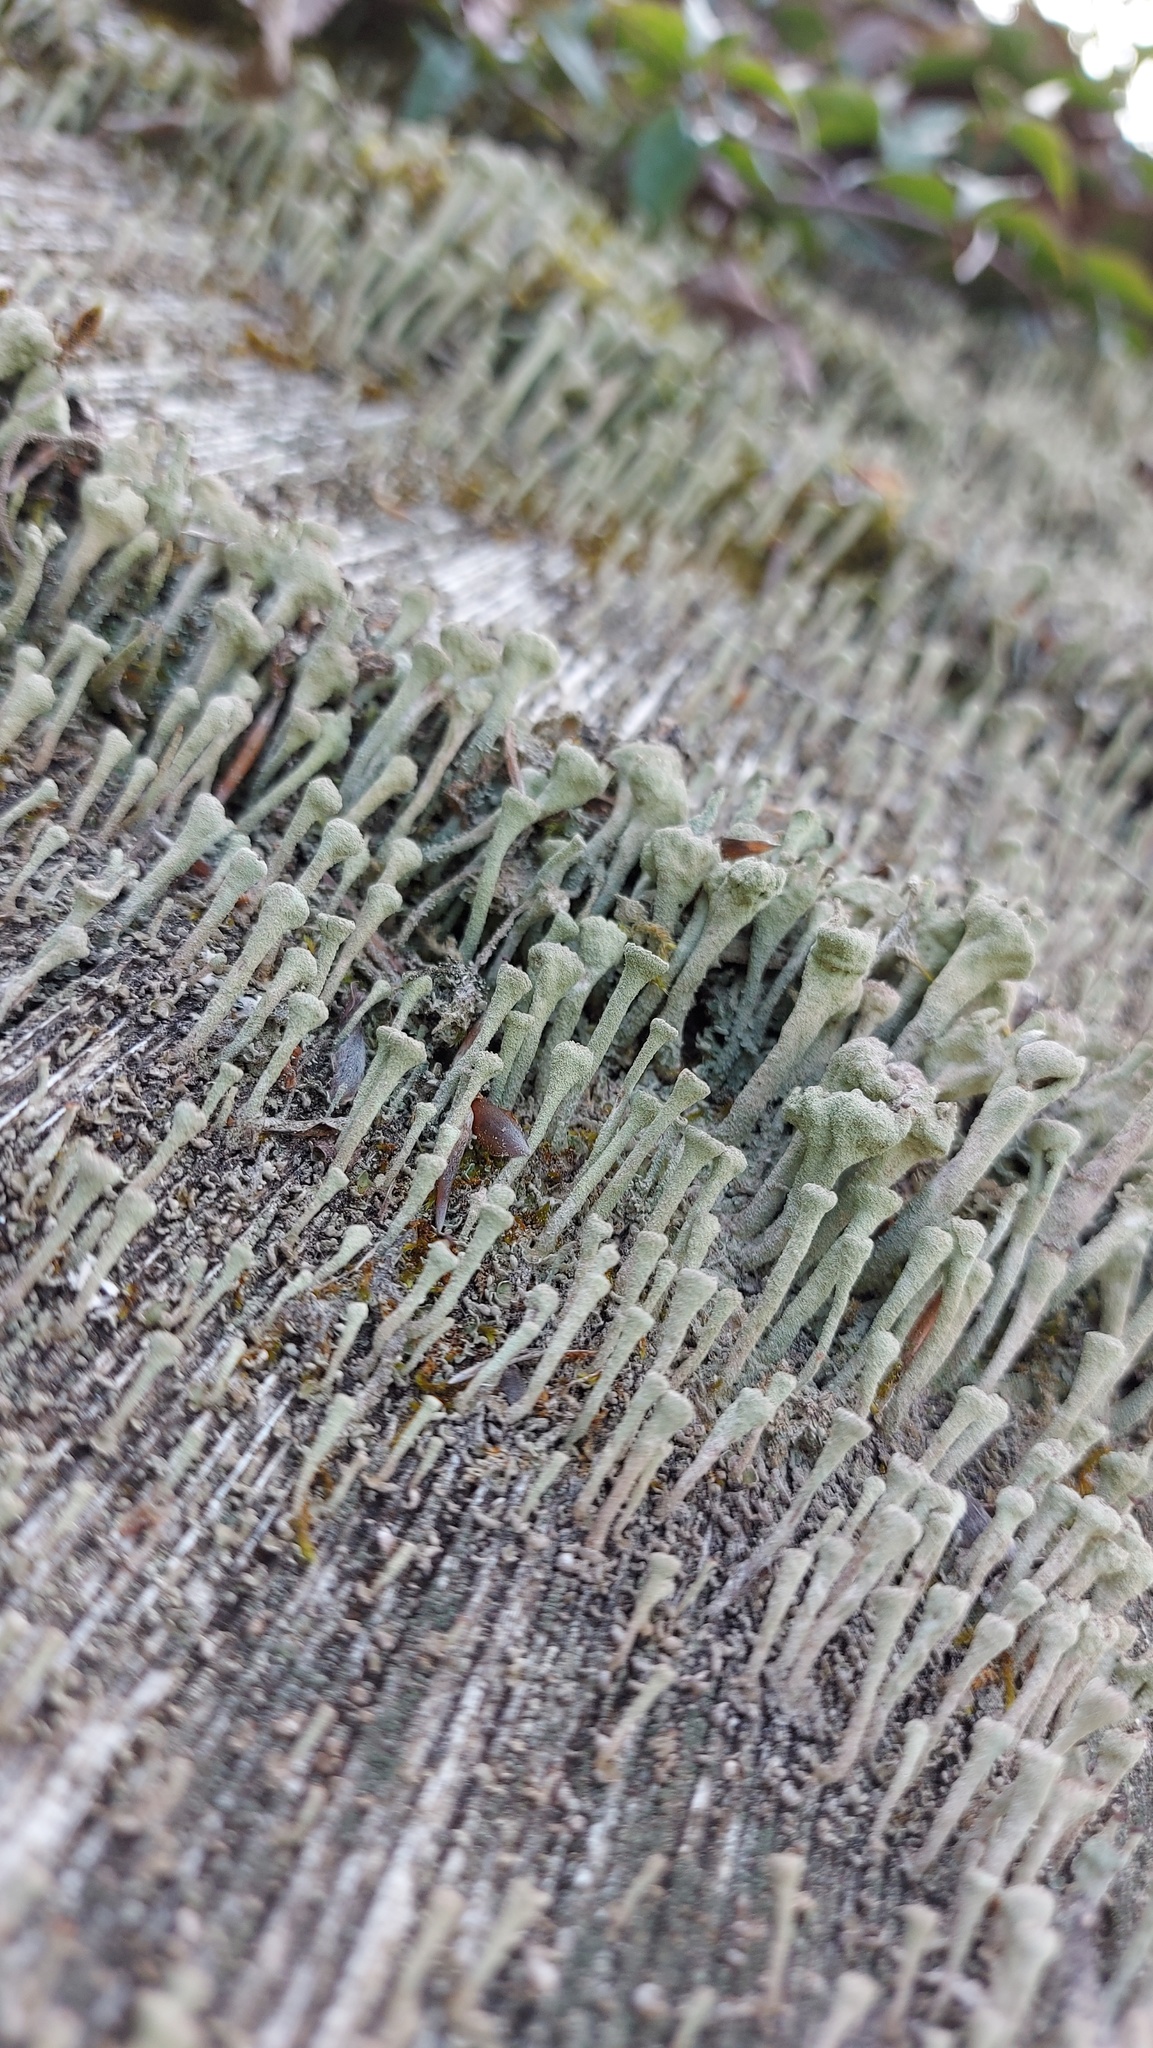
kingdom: Fungi
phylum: Ascomycota
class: Lecanoromycetes
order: Lecanorales
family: Cladoniaceae
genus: Cladonia
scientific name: Cladonia fimbriata
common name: Powdered trumpet lichen
